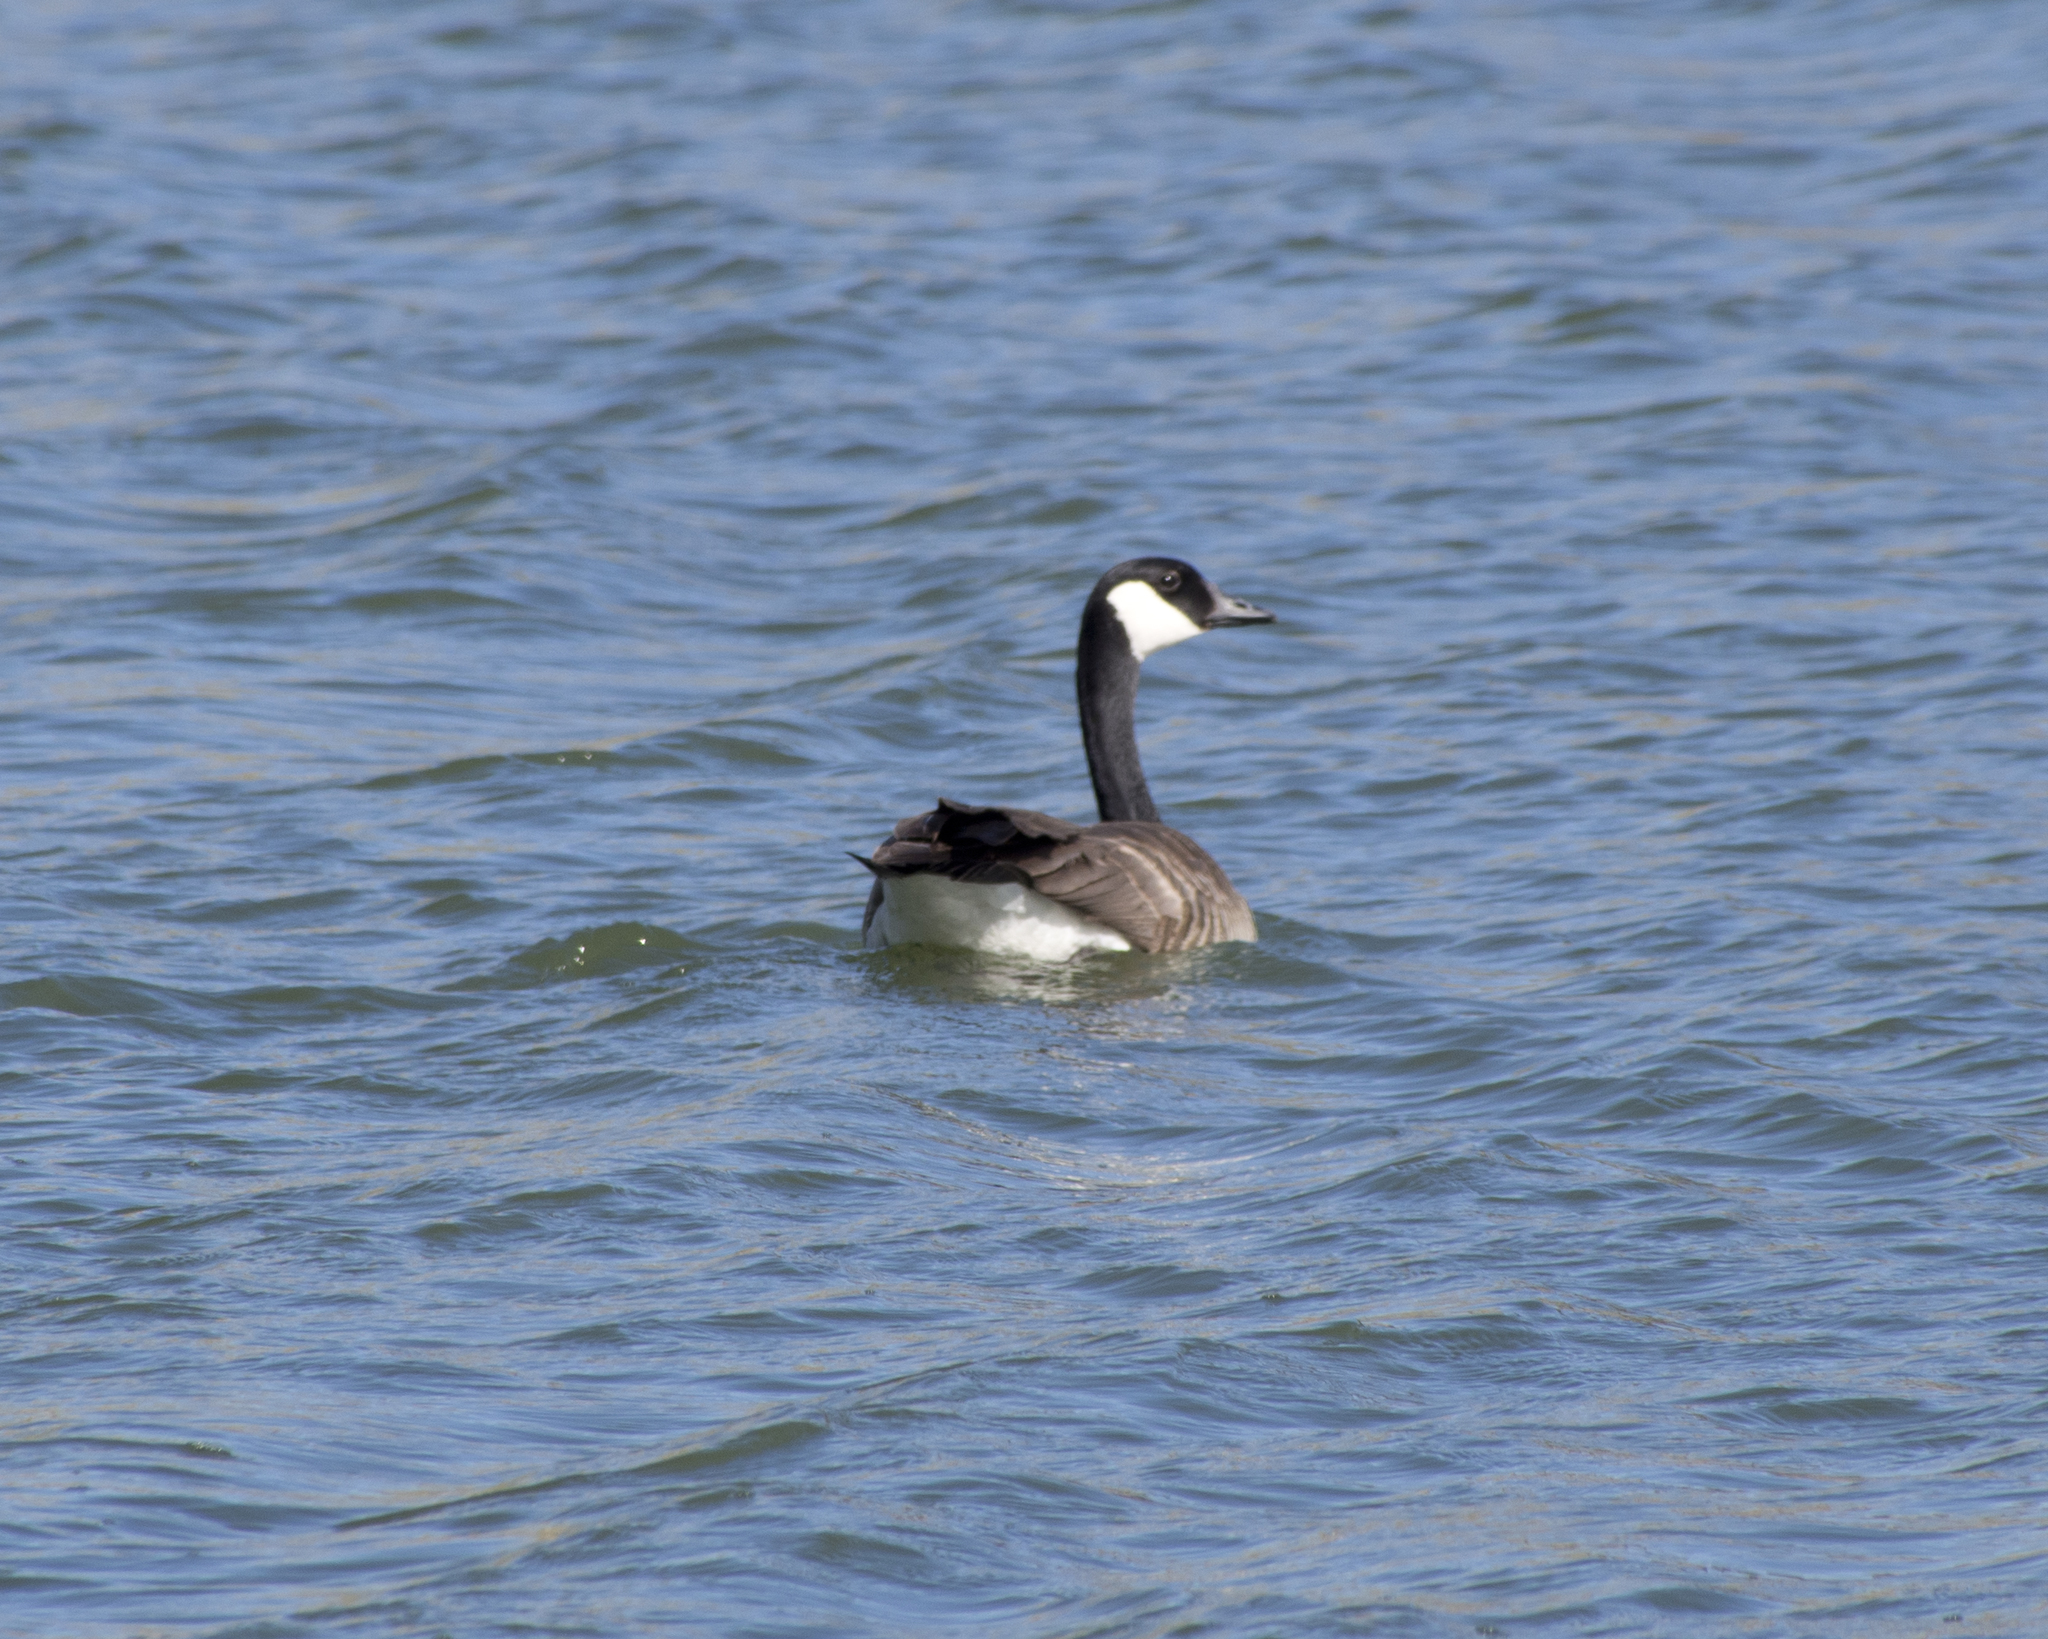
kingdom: Animalia
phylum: Chordata
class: Aves
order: Anseriformes
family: Anatidae
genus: Branta
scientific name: Branta canadensis
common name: Canada goose
